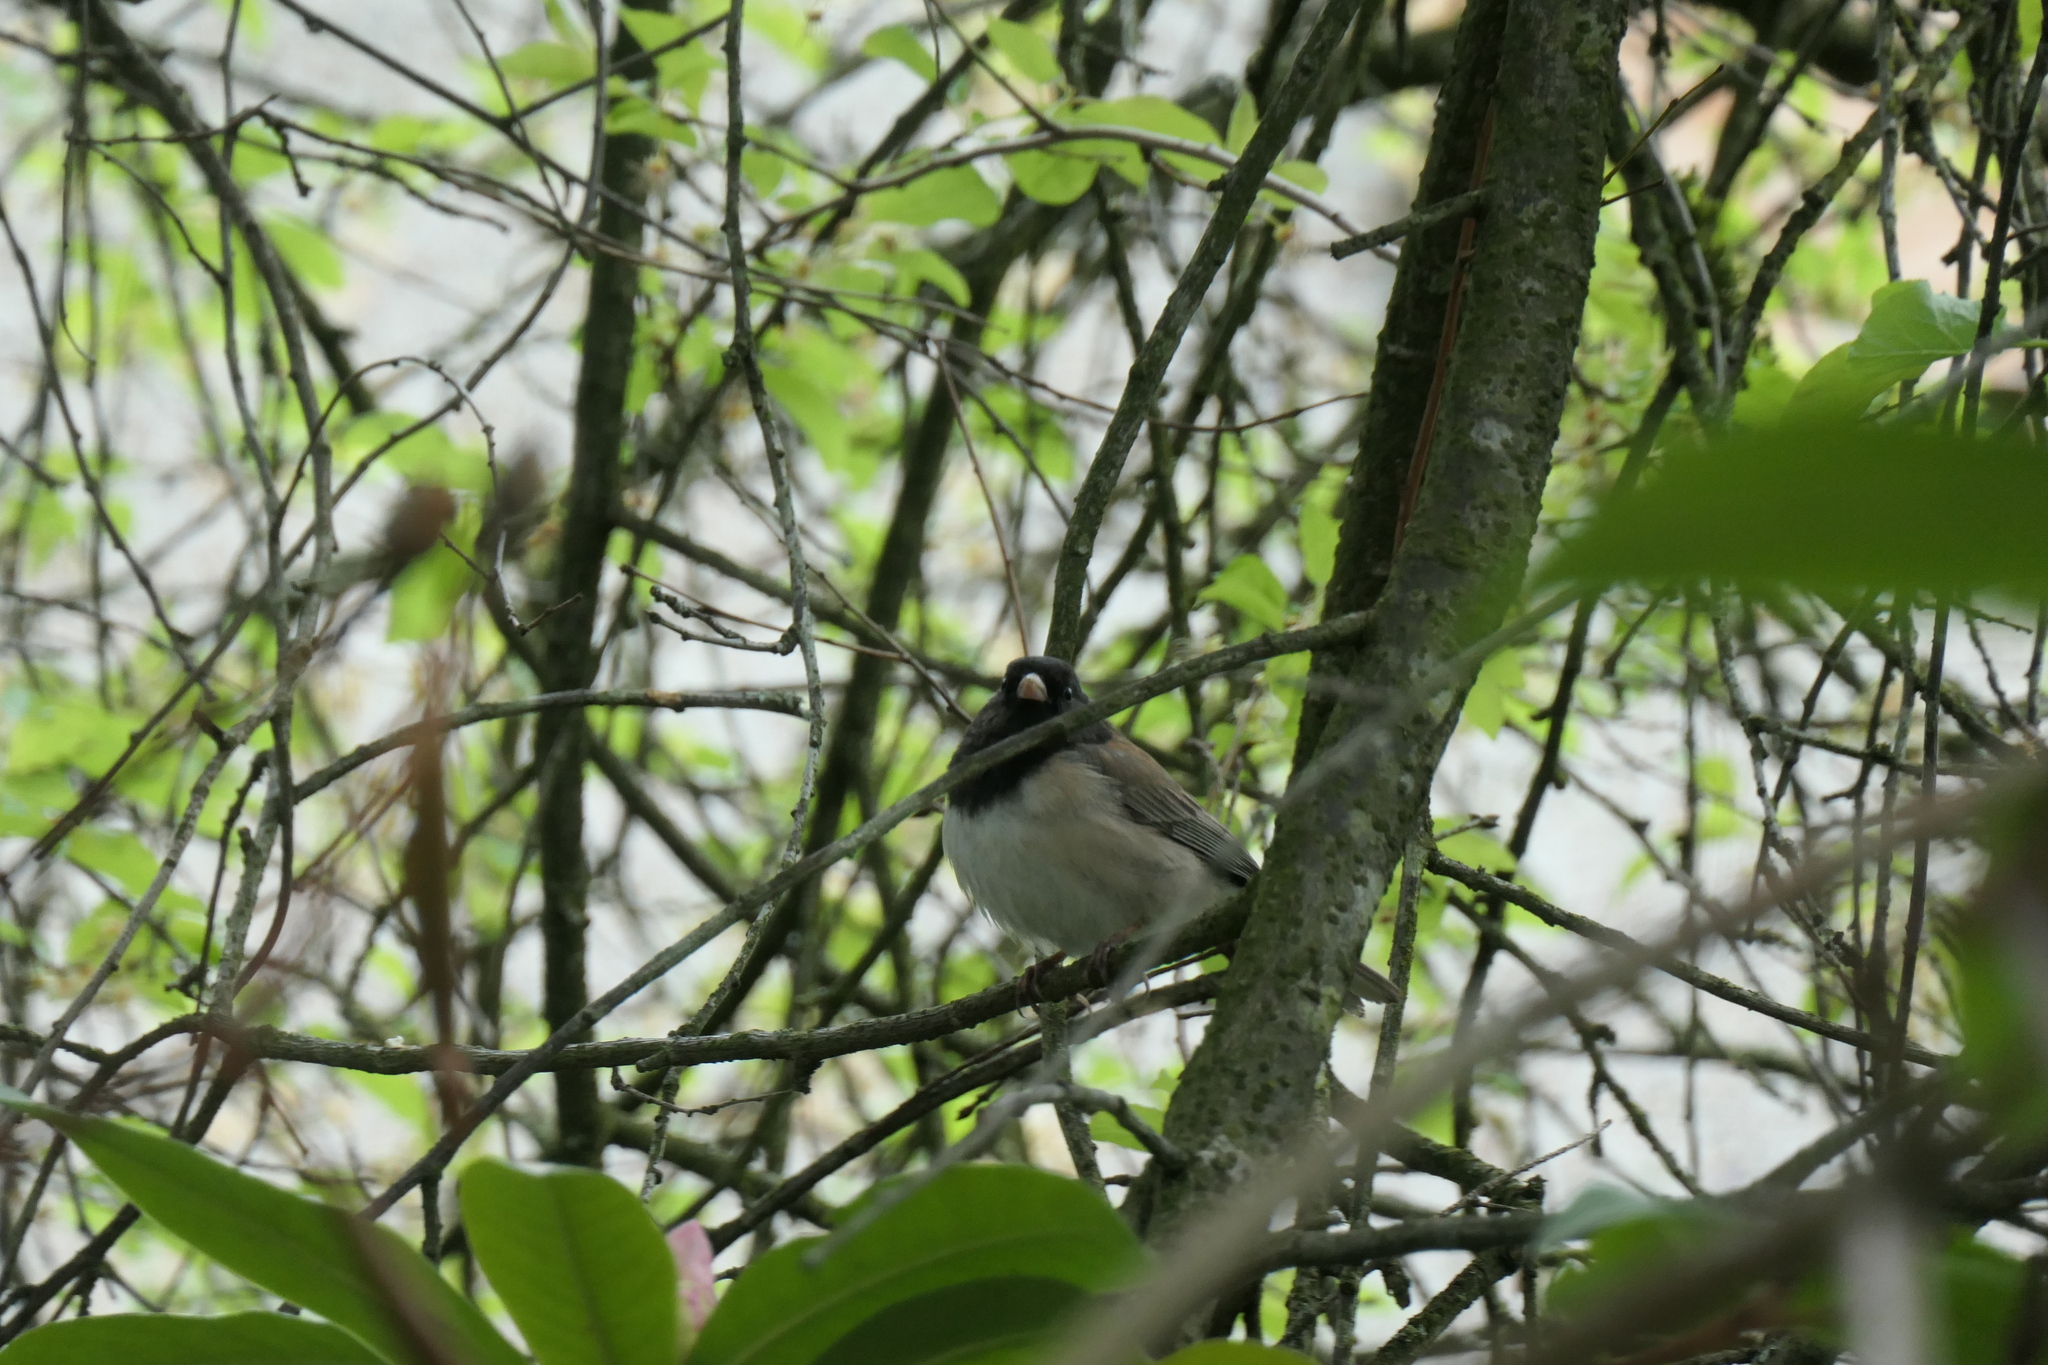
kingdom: Animalia
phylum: Chordata
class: Aves
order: Passeriformes
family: Passerellidae
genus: Junco
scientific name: Junco hyemalis
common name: Dark-eyed junco
